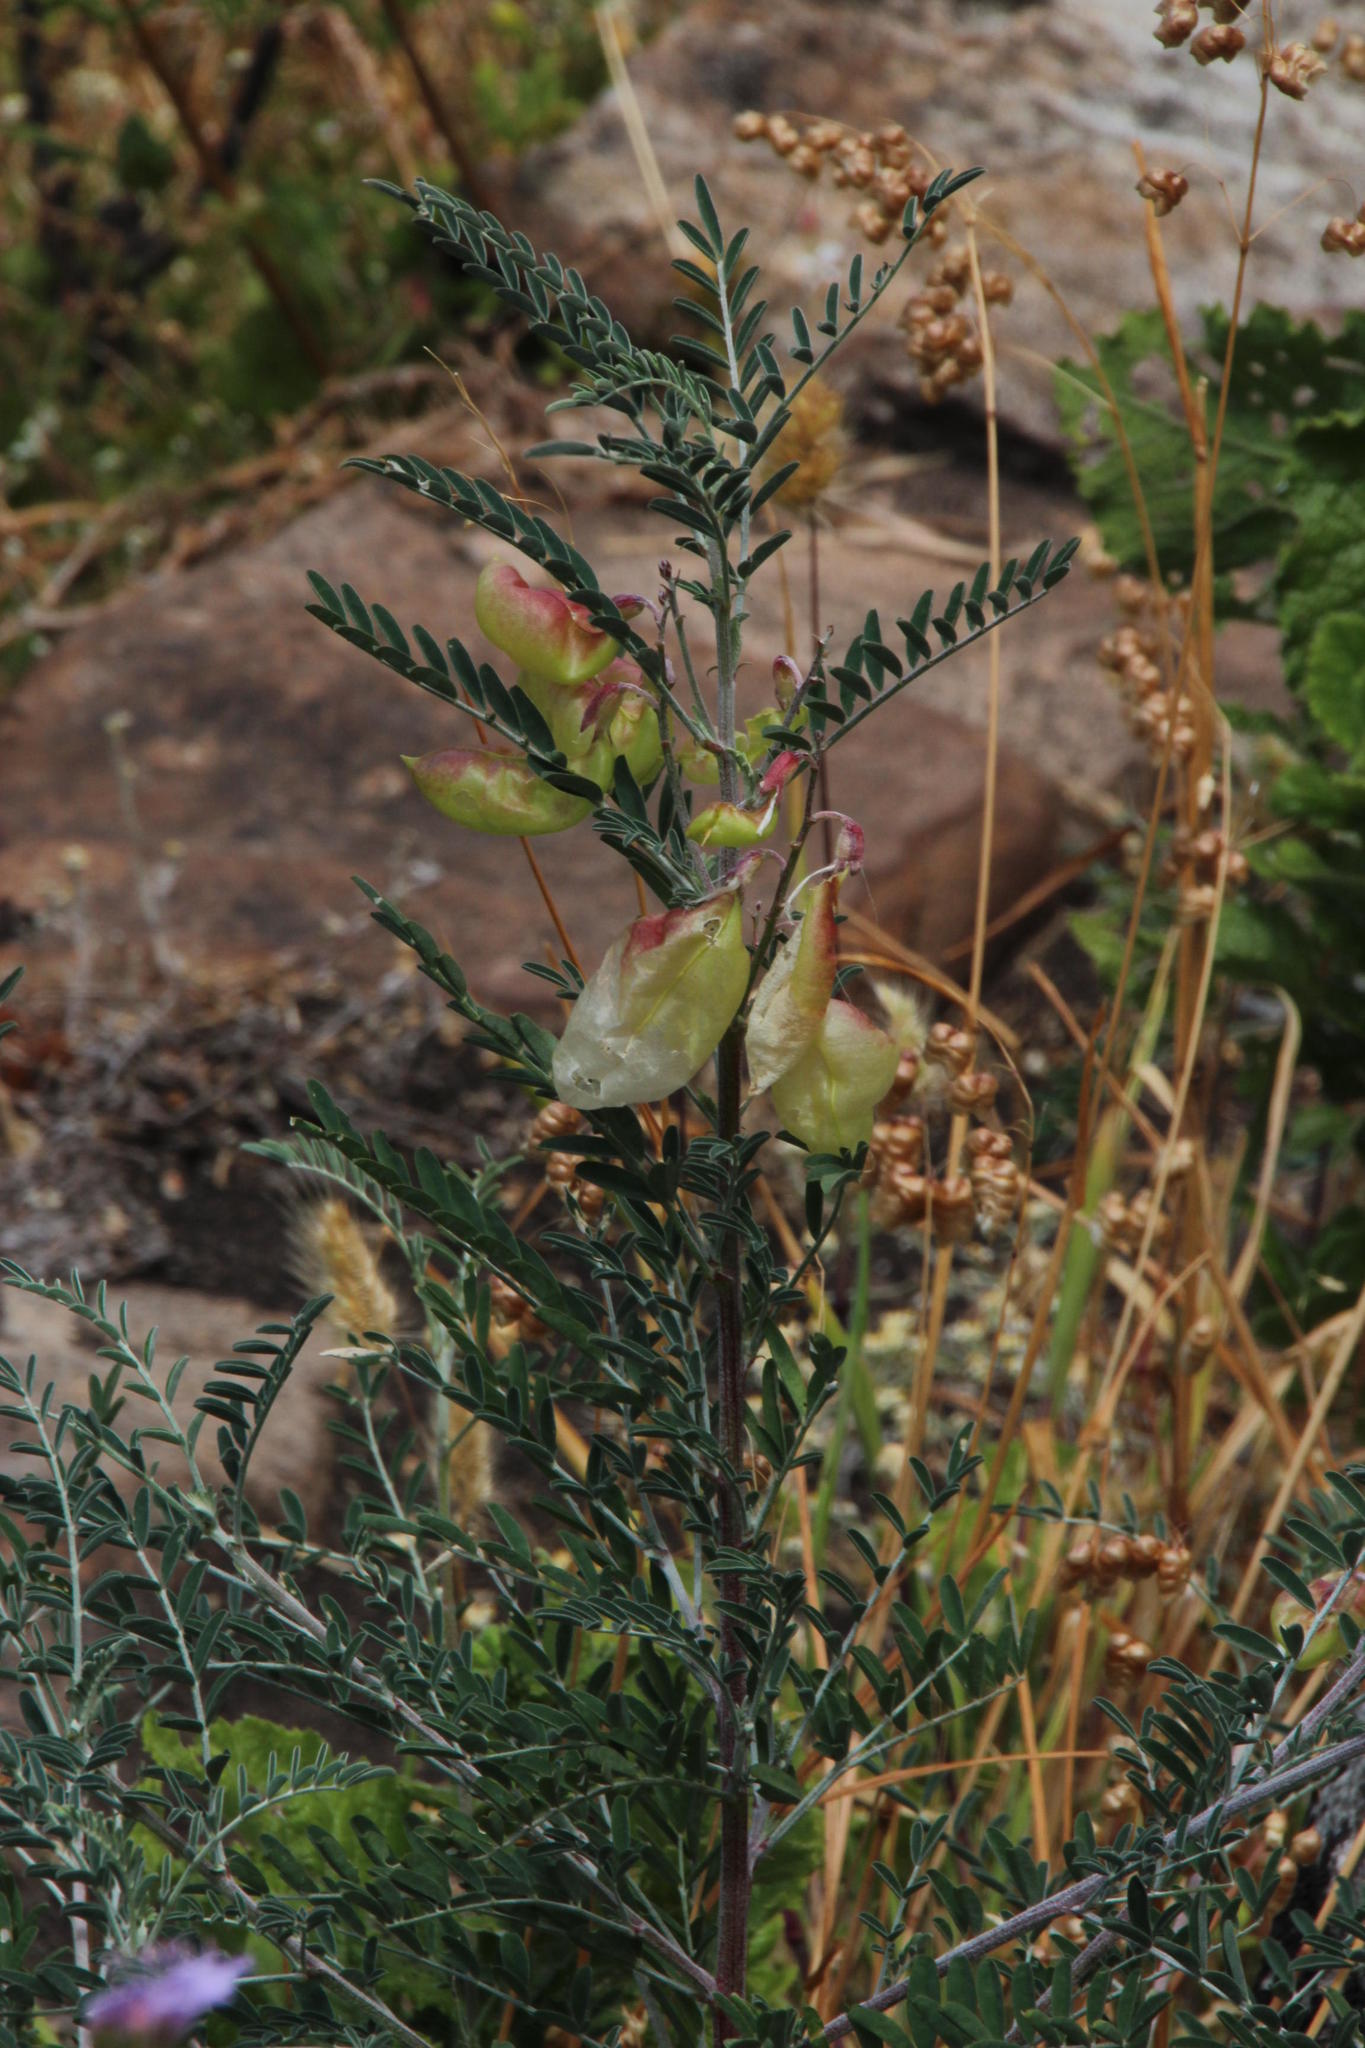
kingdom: Plantae
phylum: Tracheophyta
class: Magnoliopsida
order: Fabales
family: Fabaceae
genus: Lessertia
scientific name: Lessertia frutescens
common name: Balloon-pea
